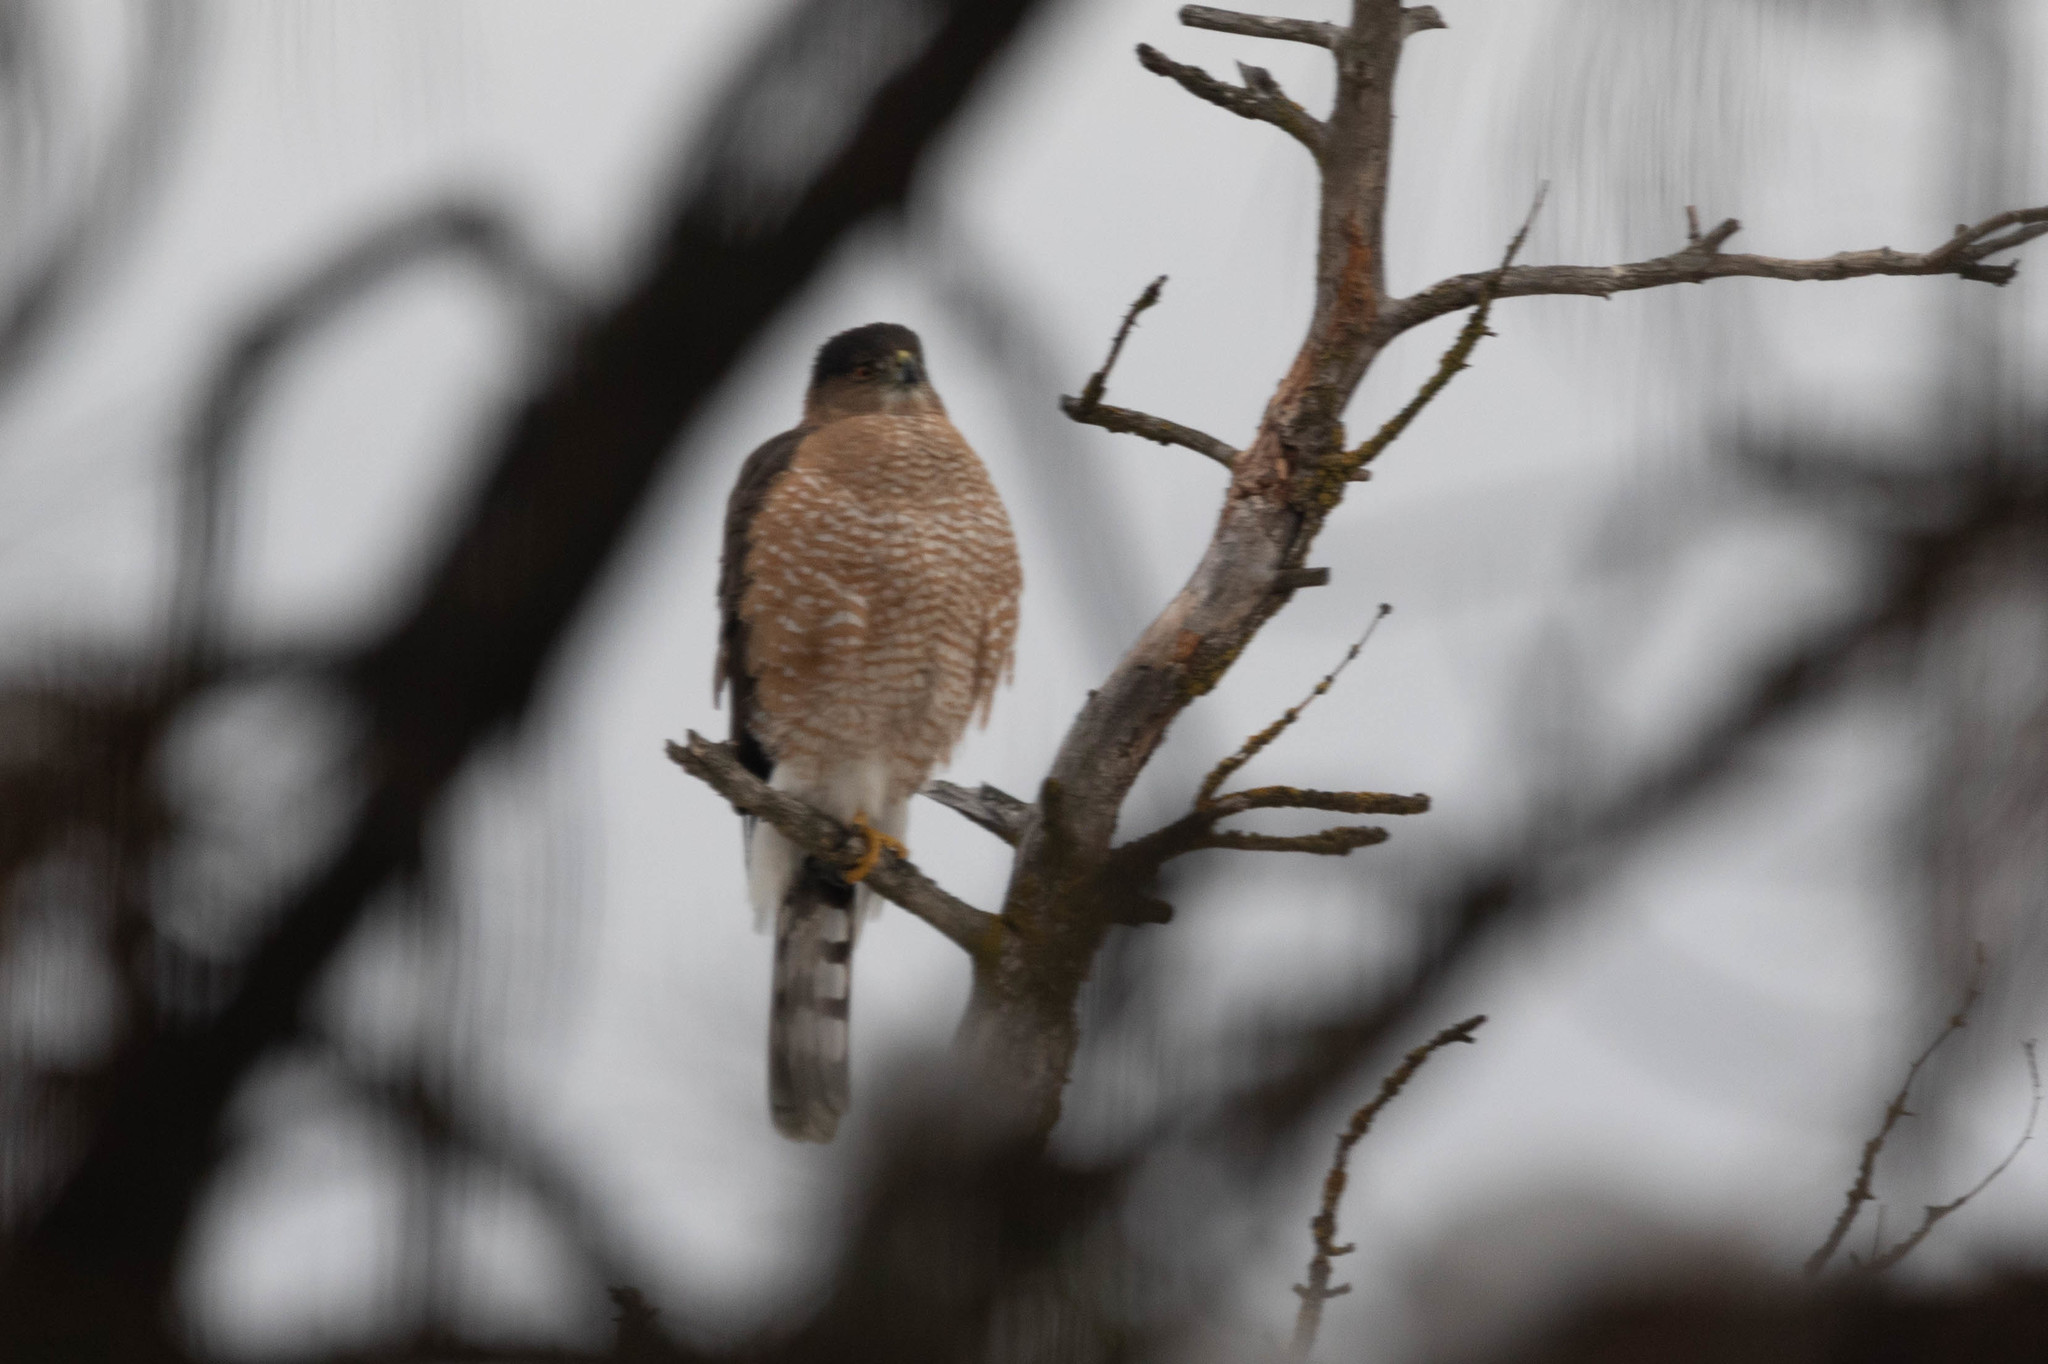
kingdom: Animalia
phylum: Chordata
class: Aves
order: Accipitriformes
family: Accipitridae
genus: Accipiter
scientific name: Accipiter cooperii
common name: Cooper's hawk
